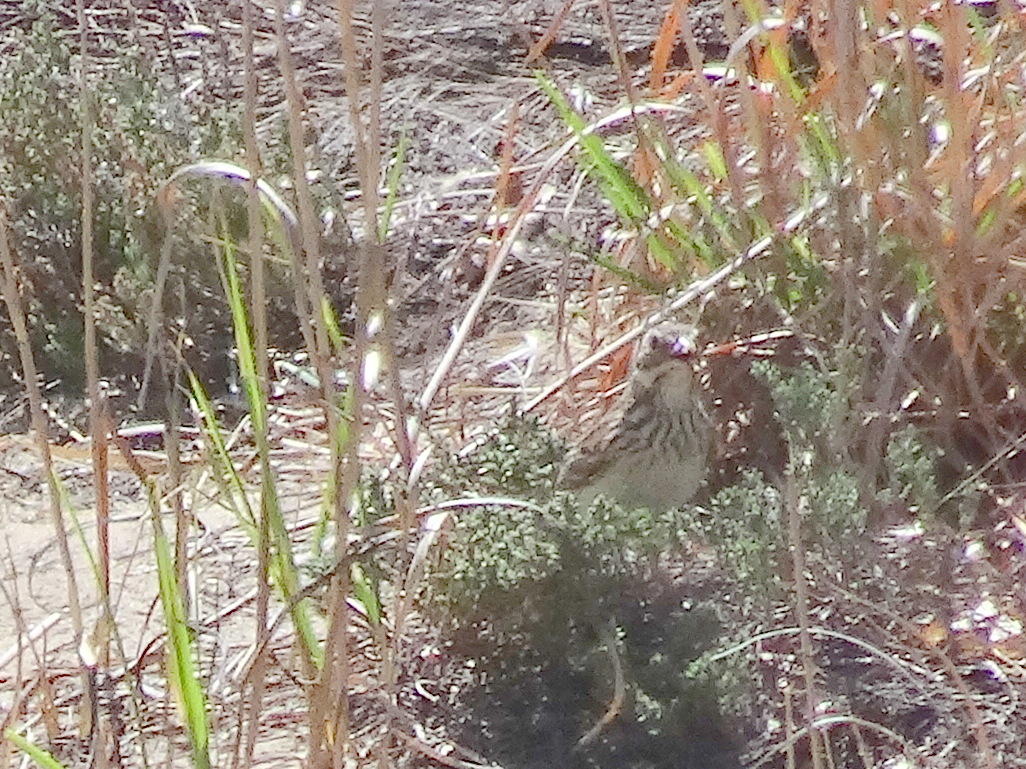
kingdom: Animalia
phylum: Chordata
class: Aves
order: Passeriformes
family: Passerellidae
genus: Pooecetes
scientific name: Pooecetes gramineus
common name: Vesper sparrow
